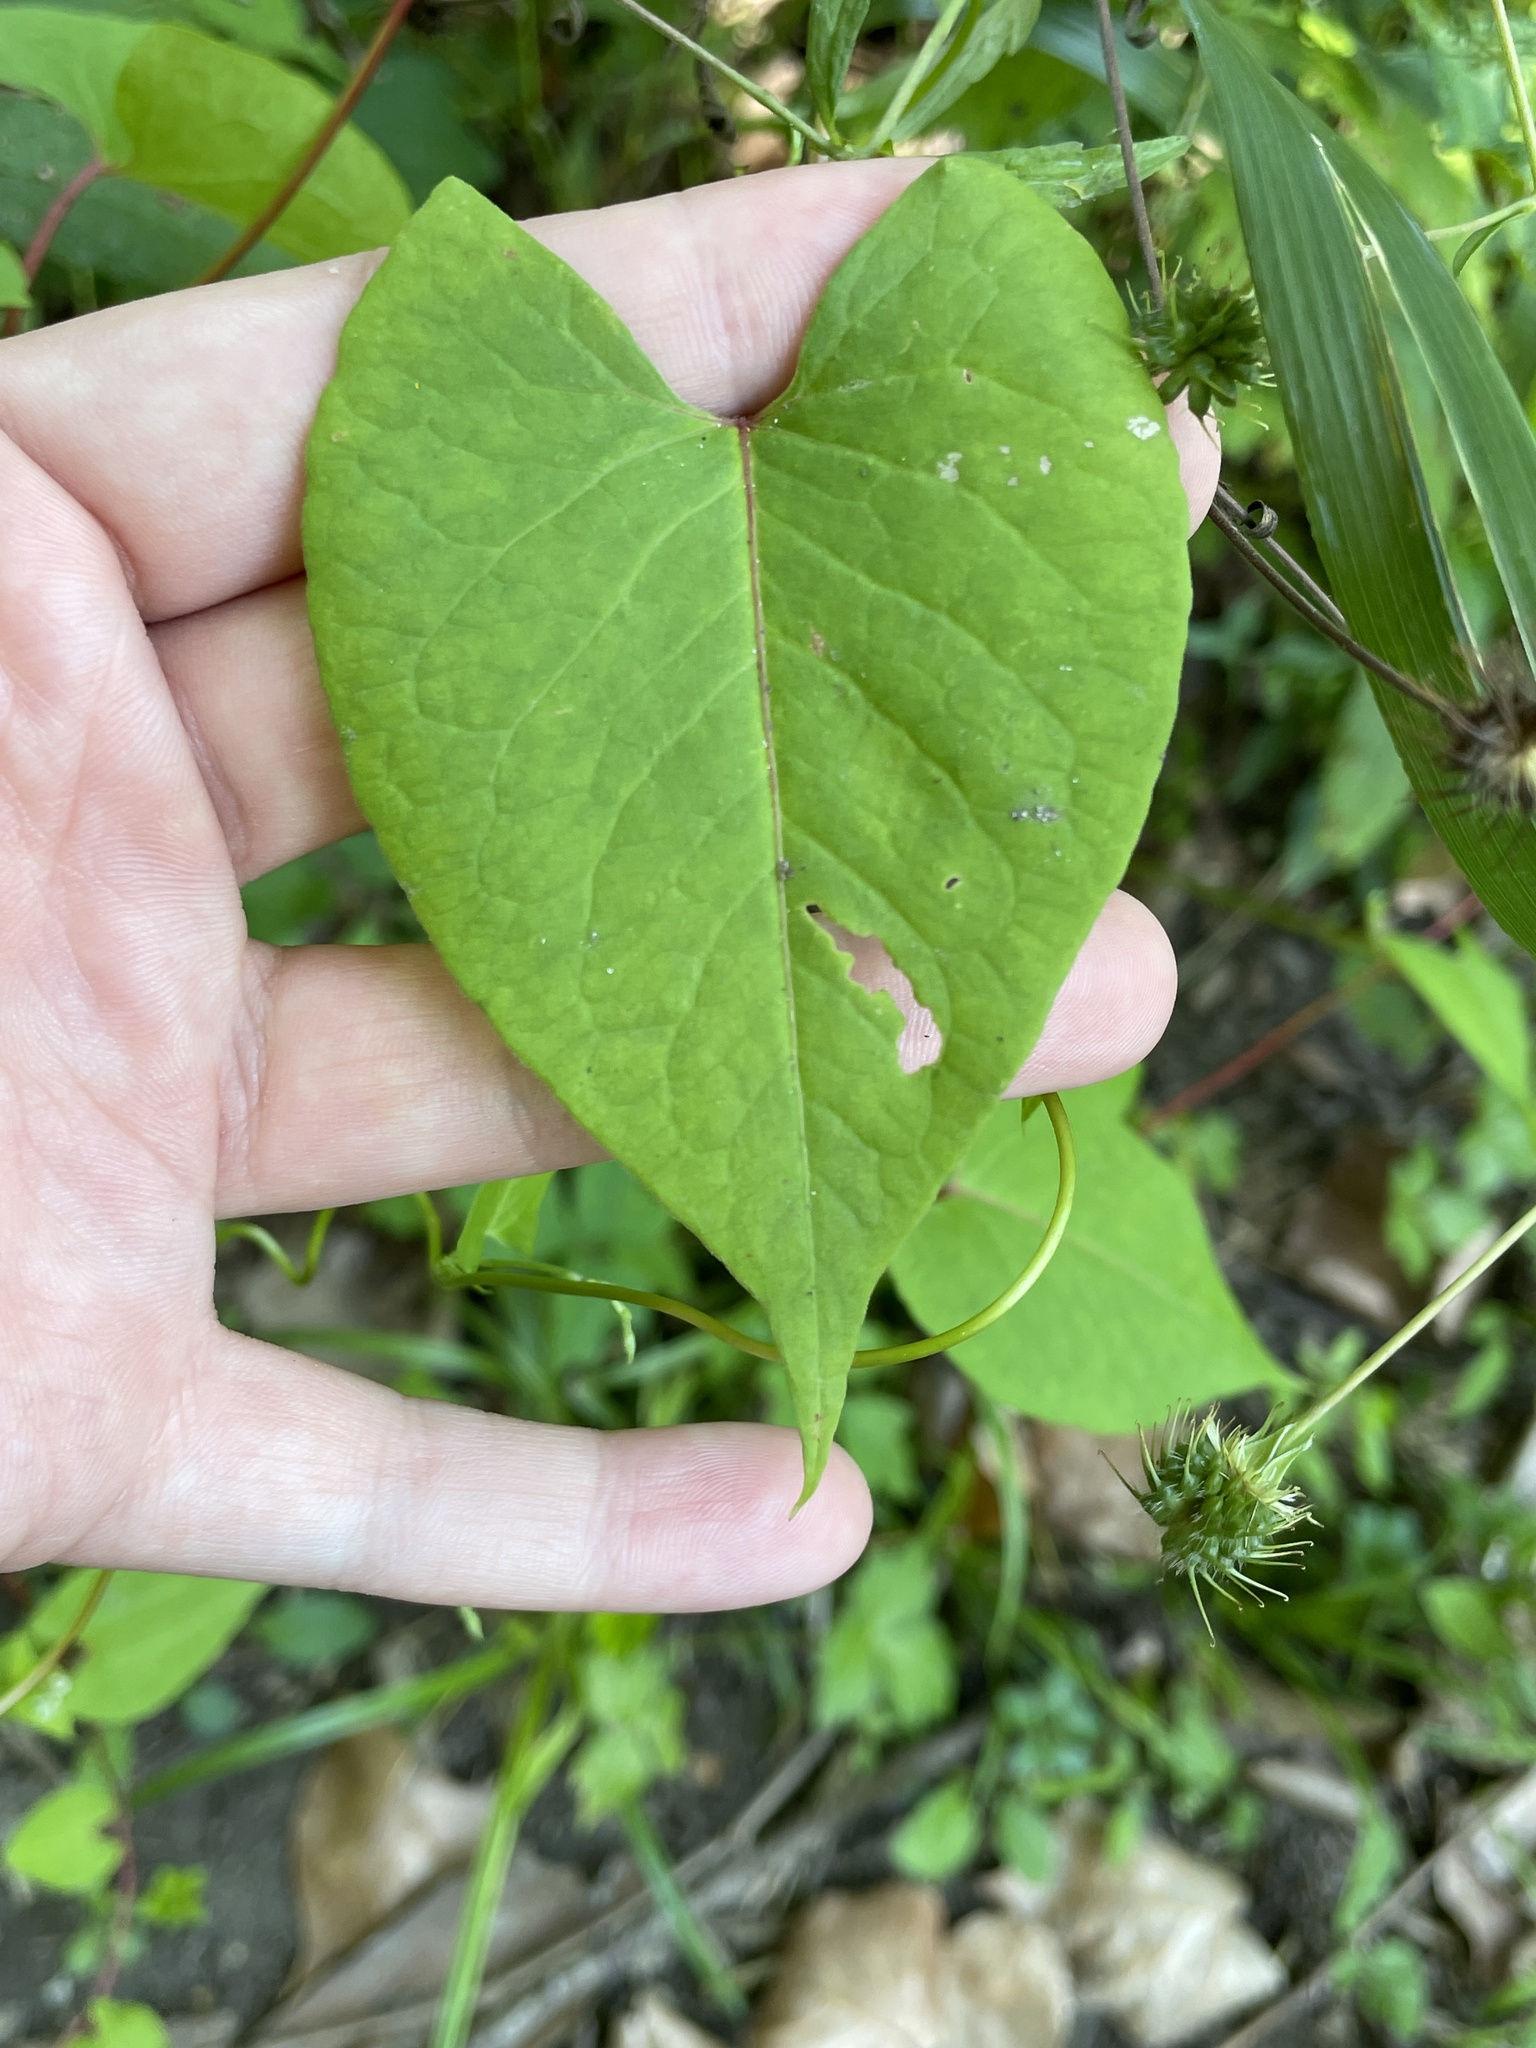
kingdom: Plantae
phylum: Tracheophyta
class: Magnoliopsida
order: Caryophyllales
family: Polygonaceae
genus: Fallopia
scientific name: Fallopia scandens
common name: Climbing false buckwheat
